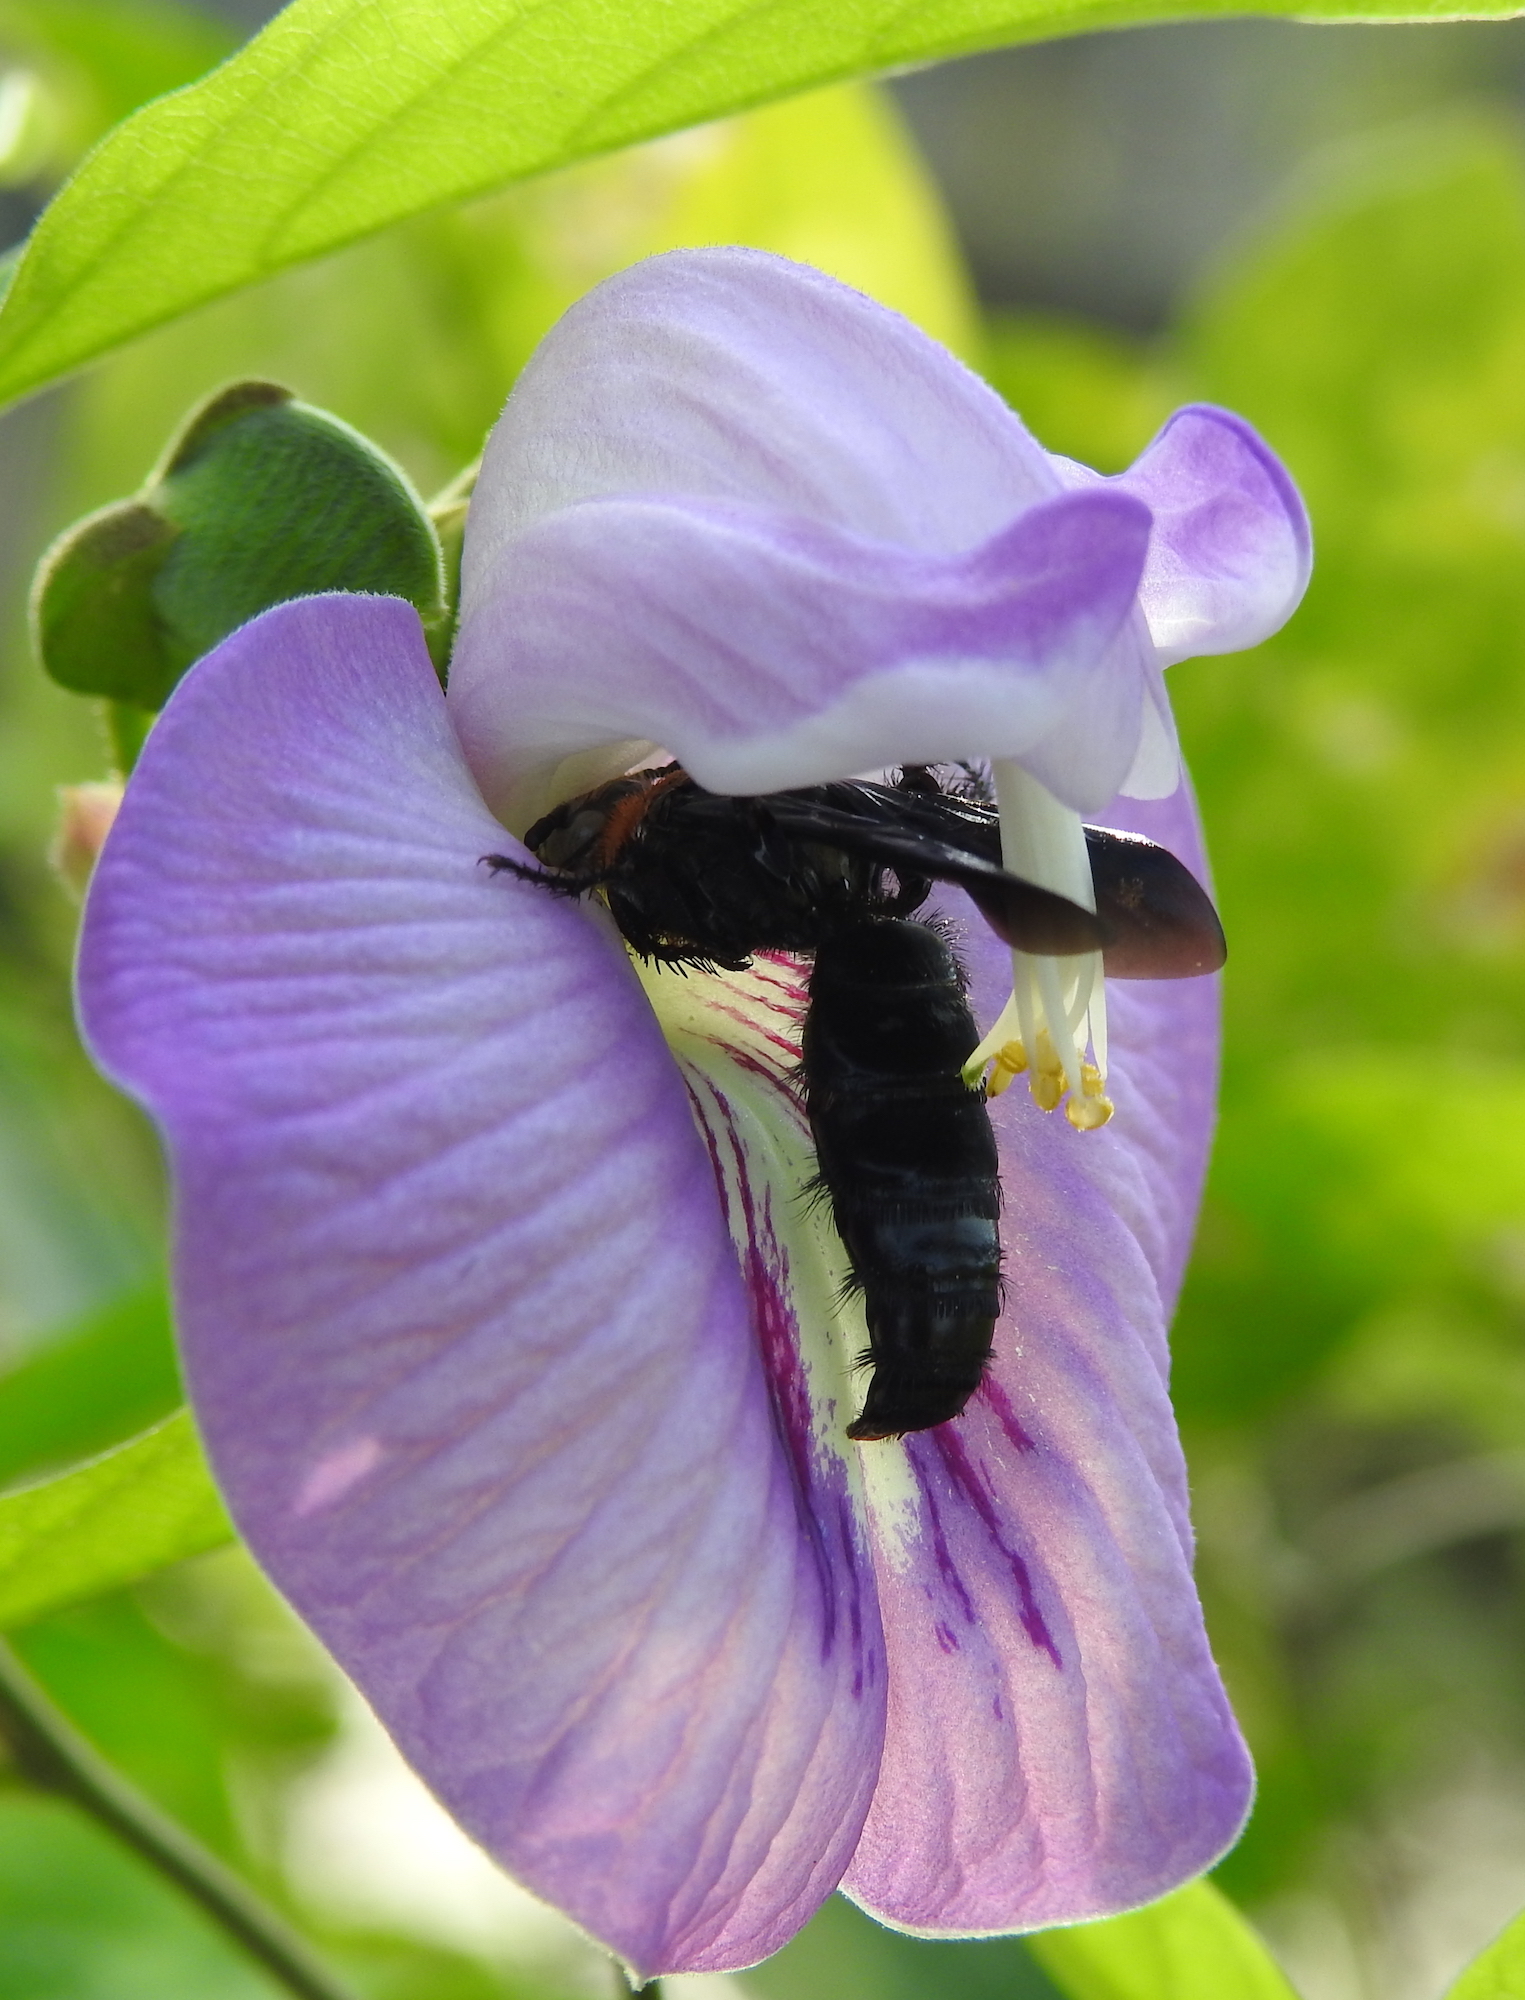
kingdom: Animalia
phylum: Arthropoda
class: Insecta
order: Hymenoptera
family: Scoliidae
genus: Campsomeriella
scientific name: Campsomeriella collaris
